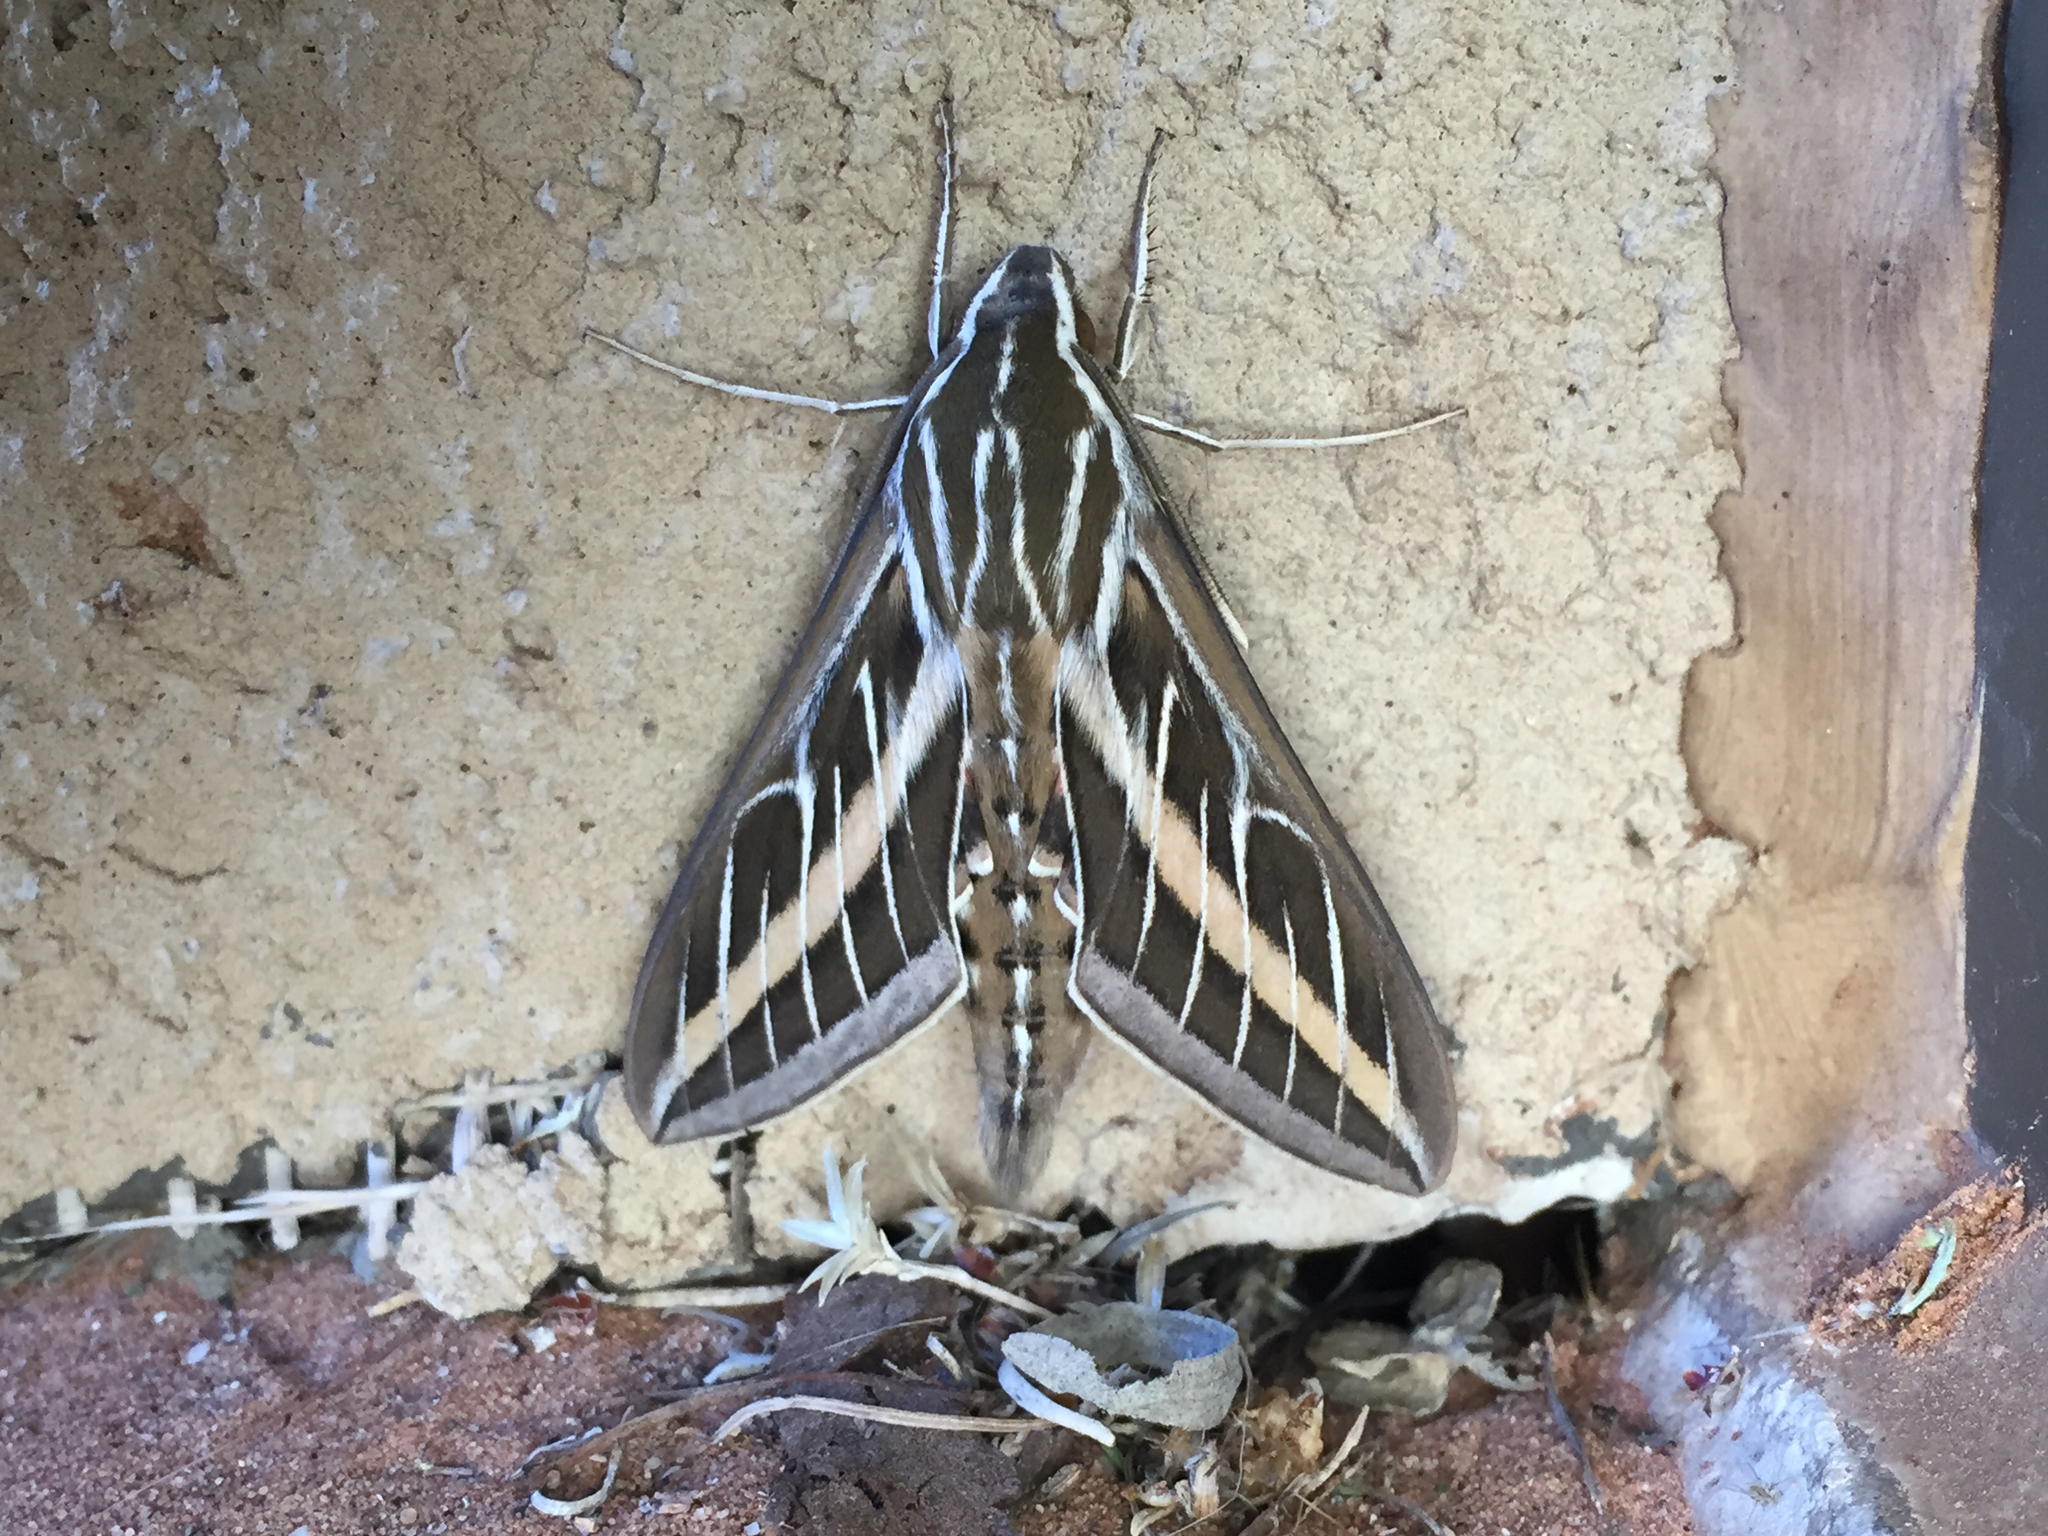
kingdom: Animalia
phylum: Arthropoda
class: Insecta
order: Lepidoptera
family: Sphingidae
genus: Hyles
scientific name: Hyles lineata
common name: White-lined sphinx
